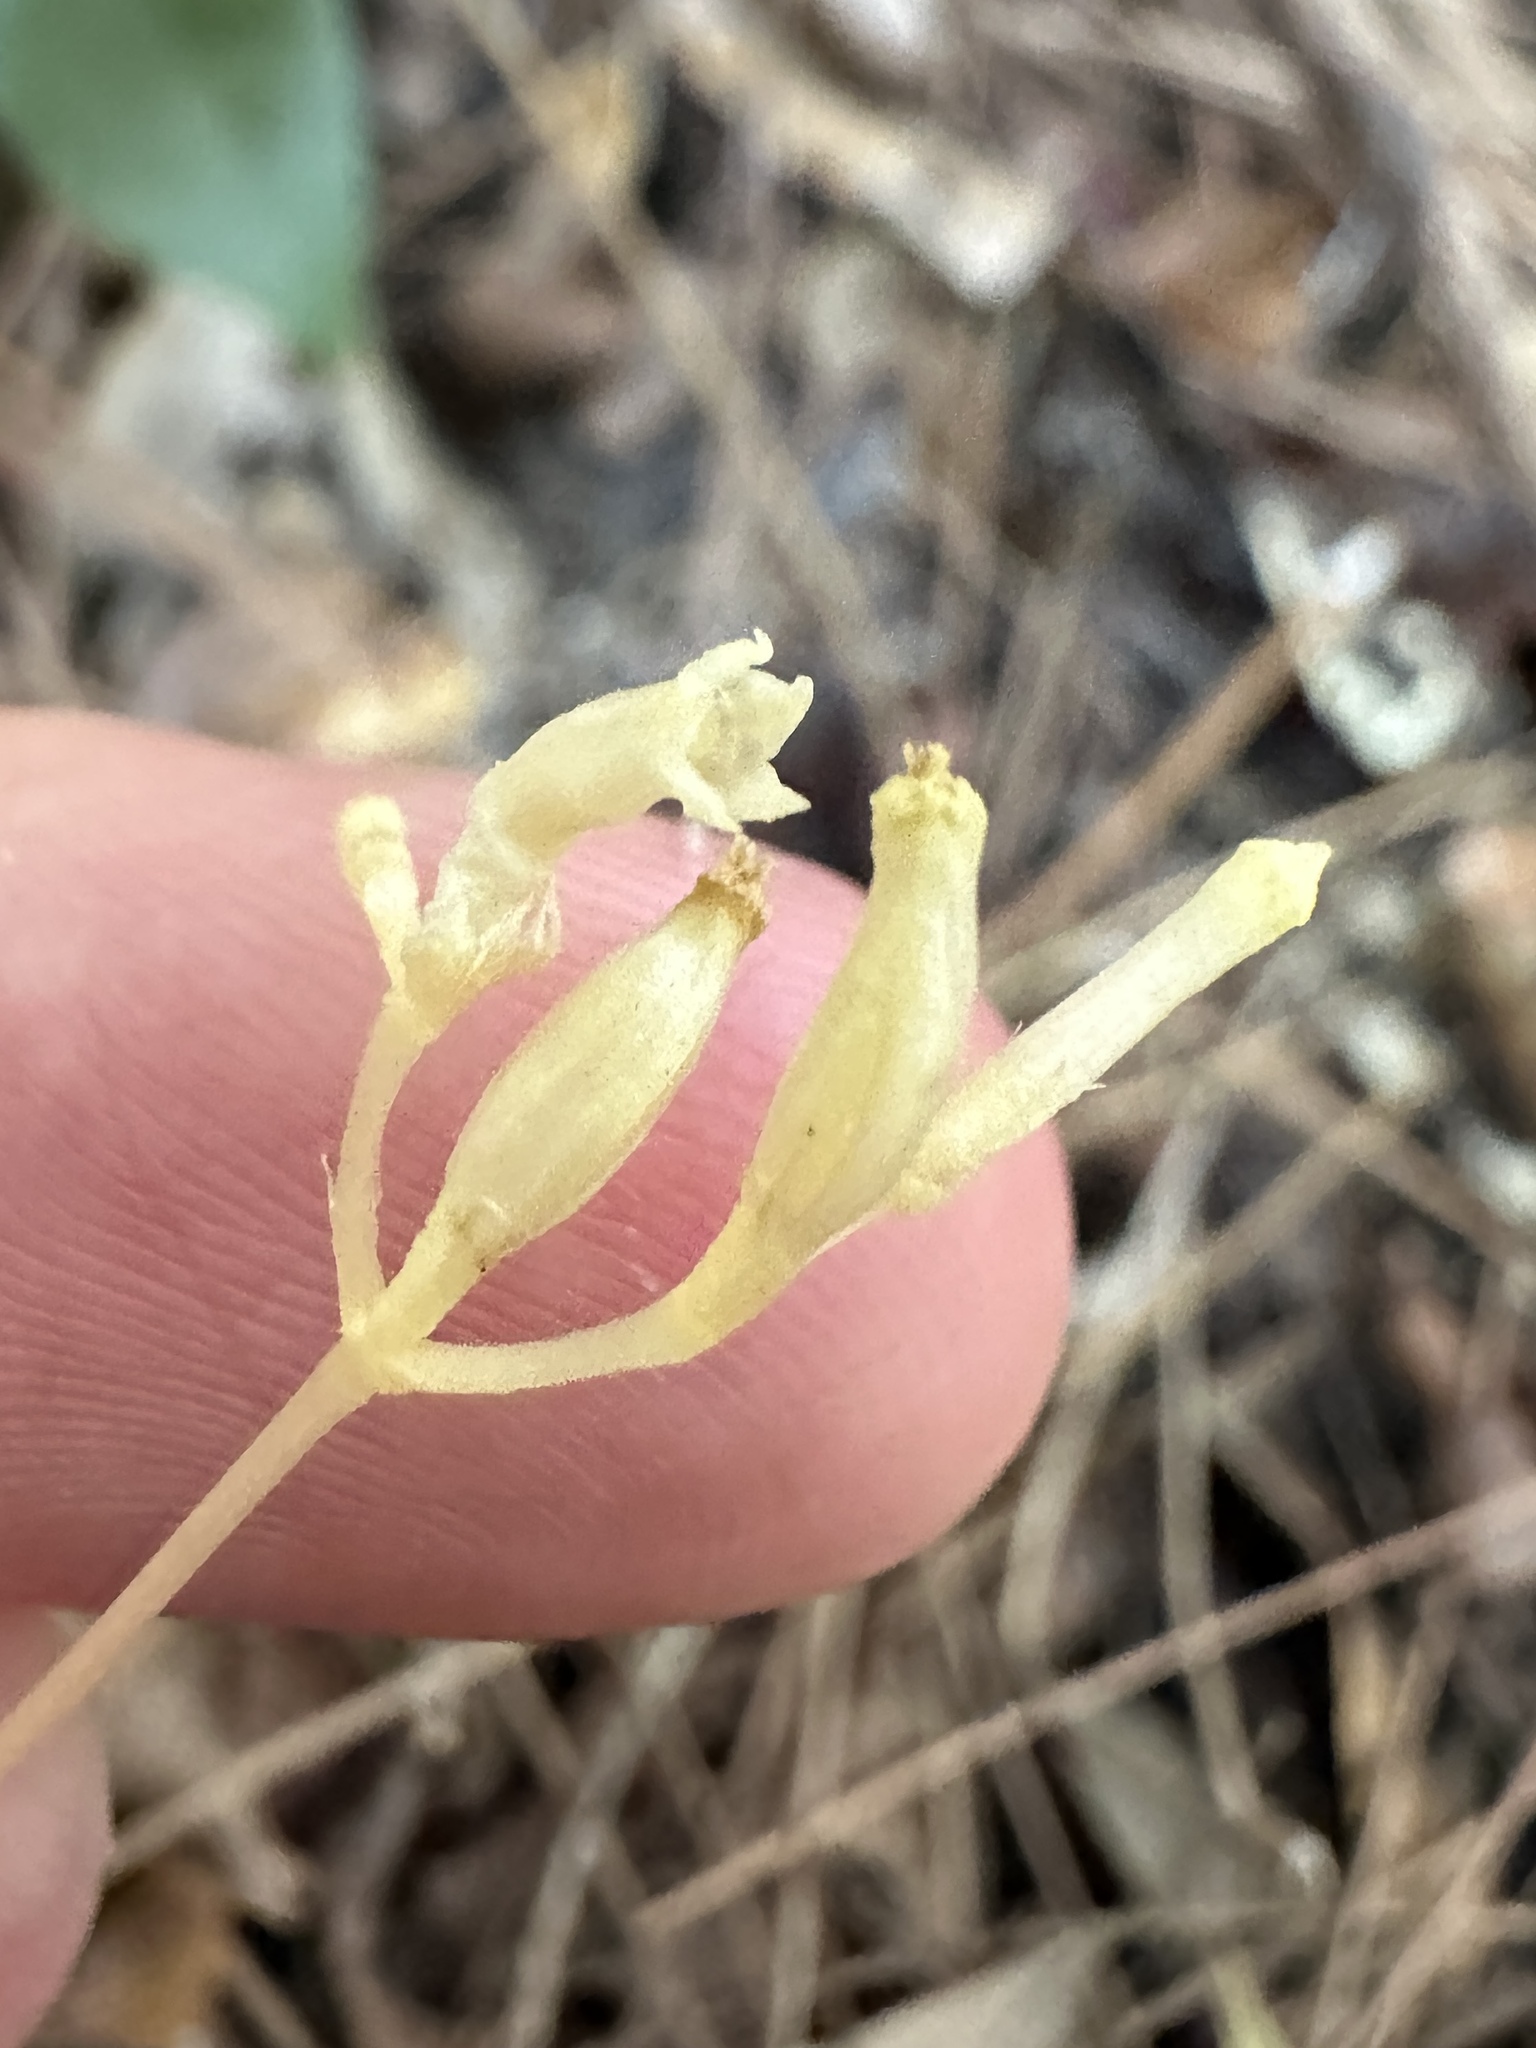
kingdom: Plantae
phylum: Tracheophyta
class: Magnoliopsida
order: Gentianales
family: Gentianaceae
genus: Voyria
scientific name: Voyria parasitica
